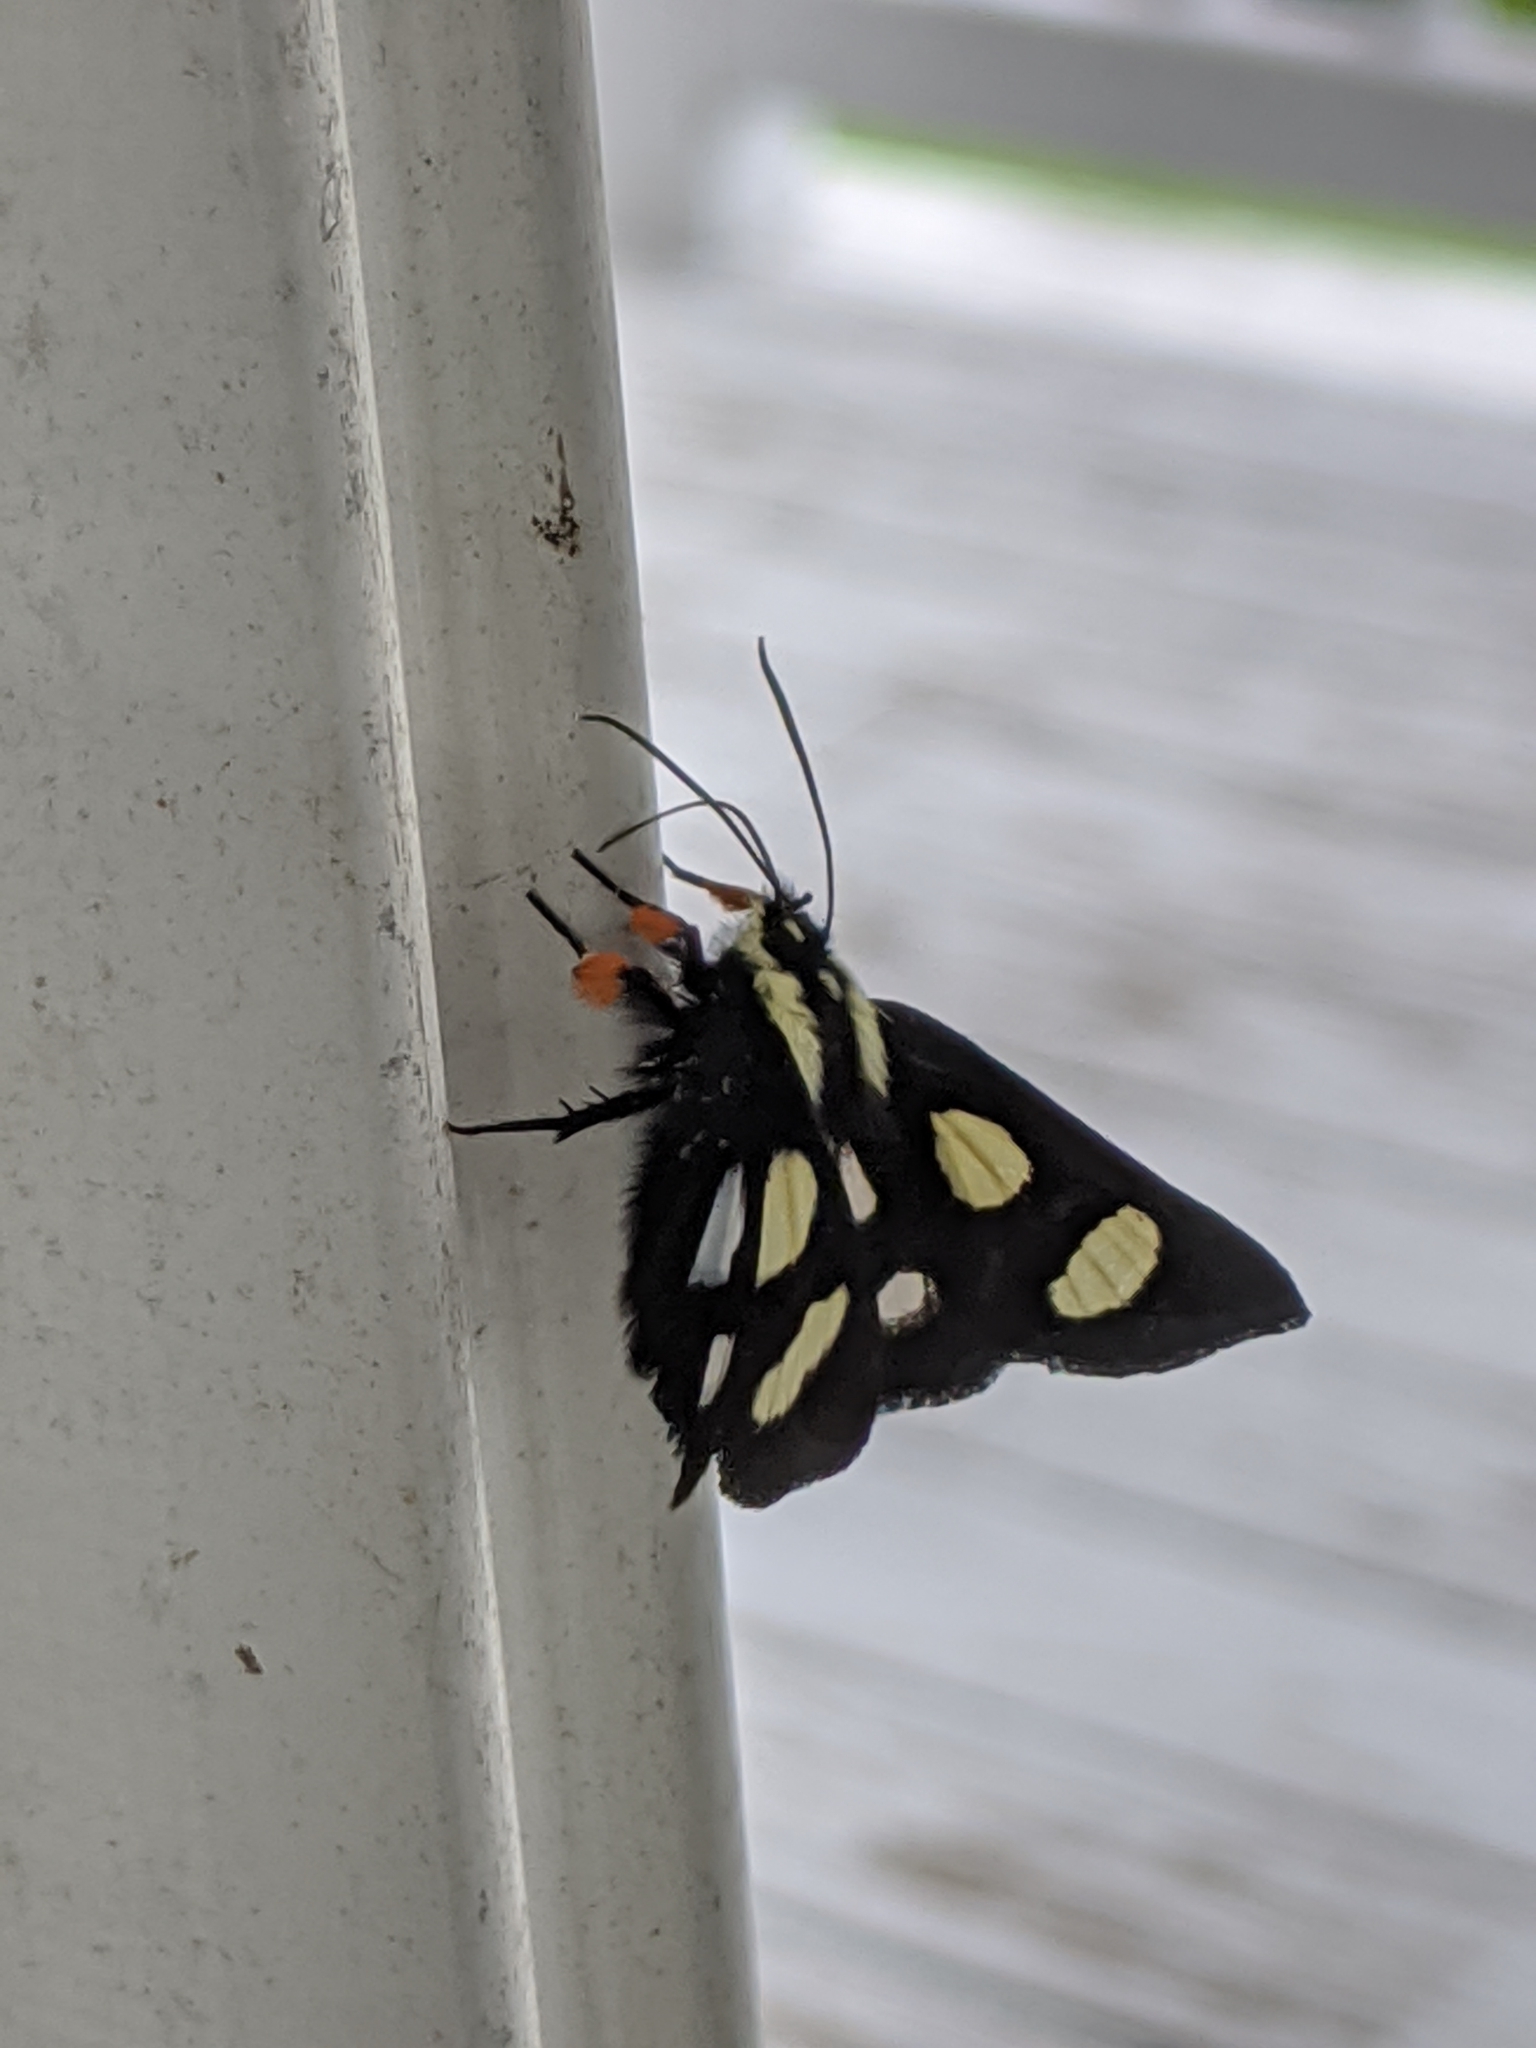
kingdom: Animalia
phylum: Arthropoda
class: Insecta
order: Lepidoptera
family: Noctuidae
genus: Alypia
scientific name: Alypia octomaculata
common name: Eight-spotted forester
